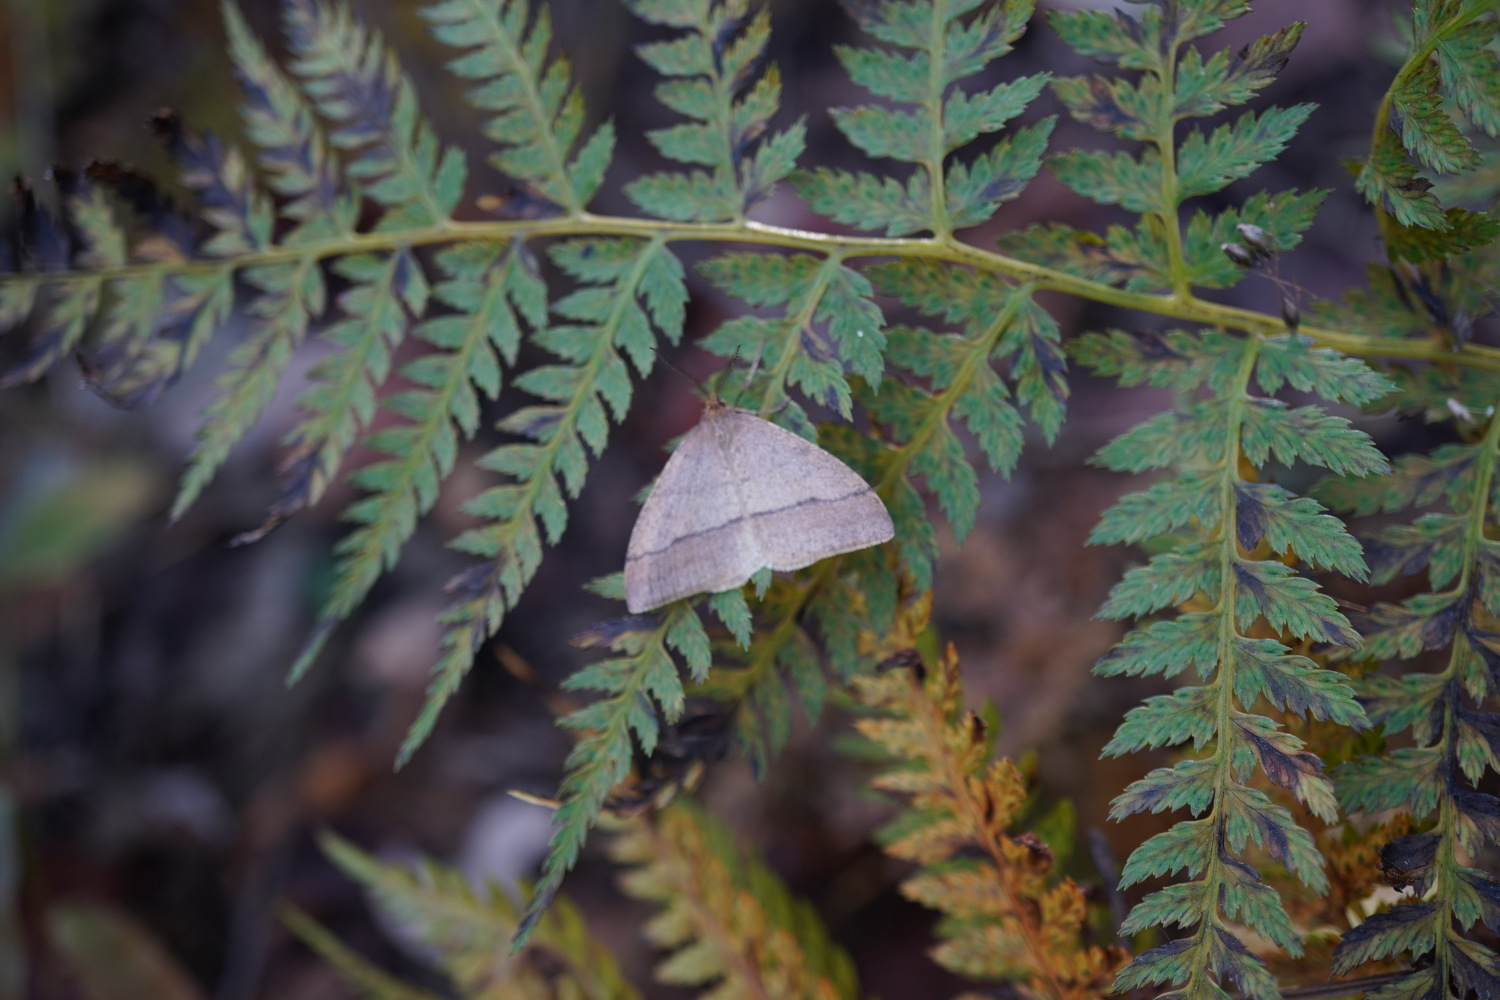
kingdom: Animalia
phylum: Arthropoda
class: Insecta
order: Lepidoptera
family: Geometridae
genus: Pachyerannis
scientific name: Pachyerannis obliquaria
